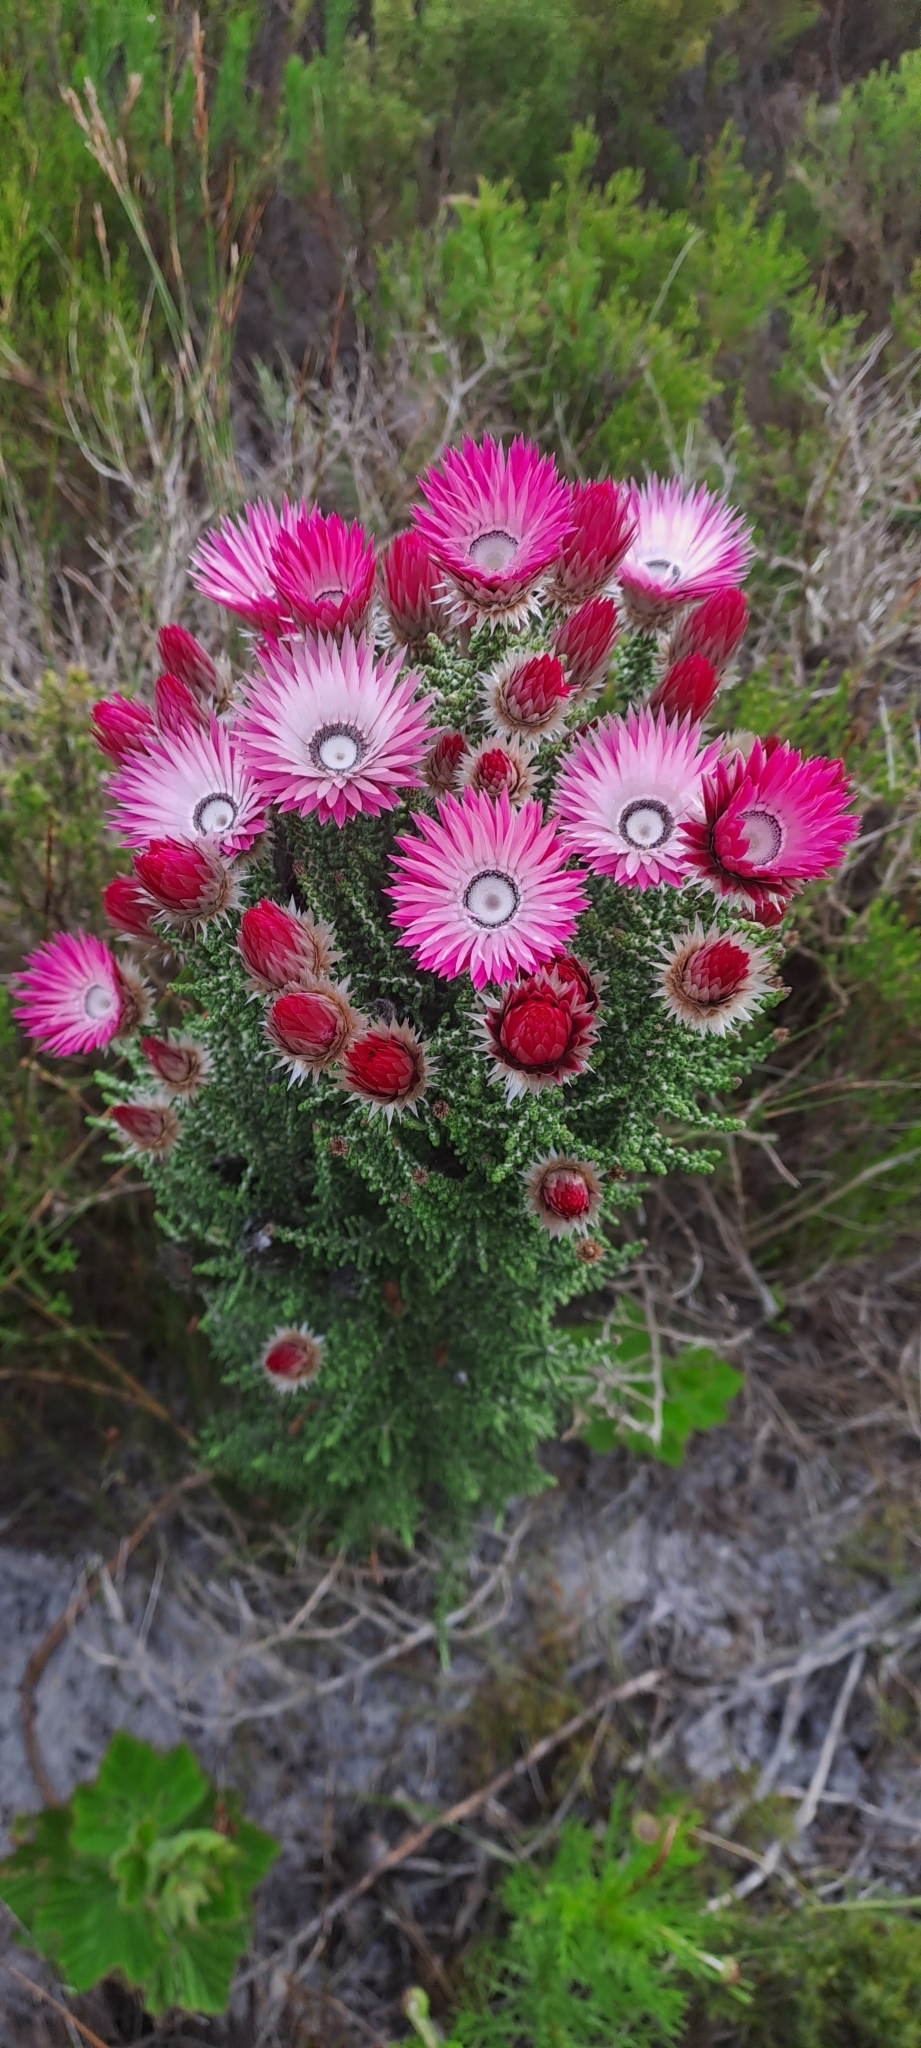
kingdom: Plantae
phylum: Tracheophyta
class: Magnoliopsida
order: Asterales
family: Asteraceae
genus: Phaenocoma
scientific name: Phaenocoma prolifera
